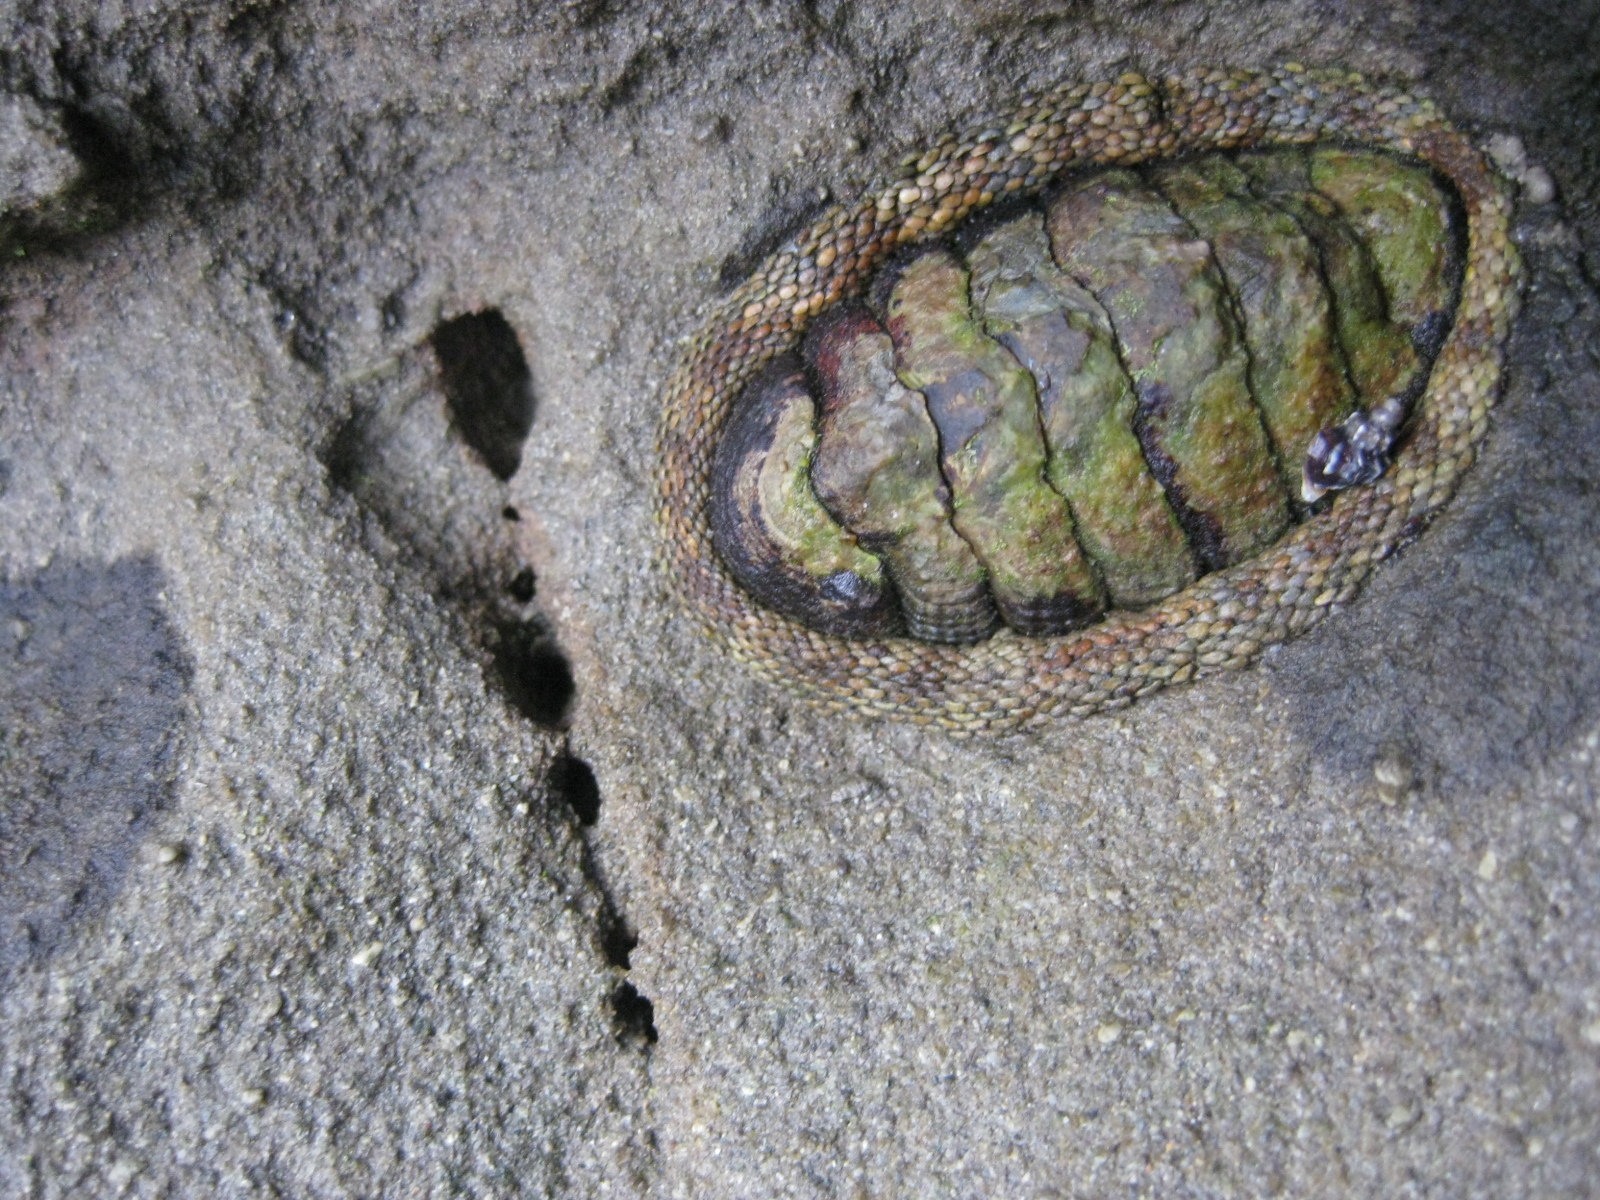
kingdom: Animalia
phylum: Mollusca
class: Polyplacophora
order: Chitonida
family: Chitonidae
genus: Sypharochiton
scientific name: Sypharochiton pelliserpentis
